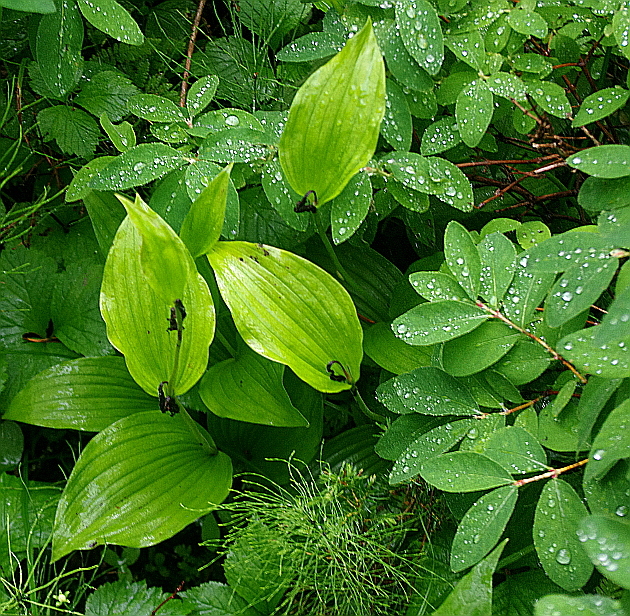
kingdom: Plantae
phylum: Tracheophyta
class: Liliopsida
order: Asparagales
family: Orchidaceae
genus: Cypripedium
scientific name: Cypripedium calceolus
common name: Lady's-slipper
